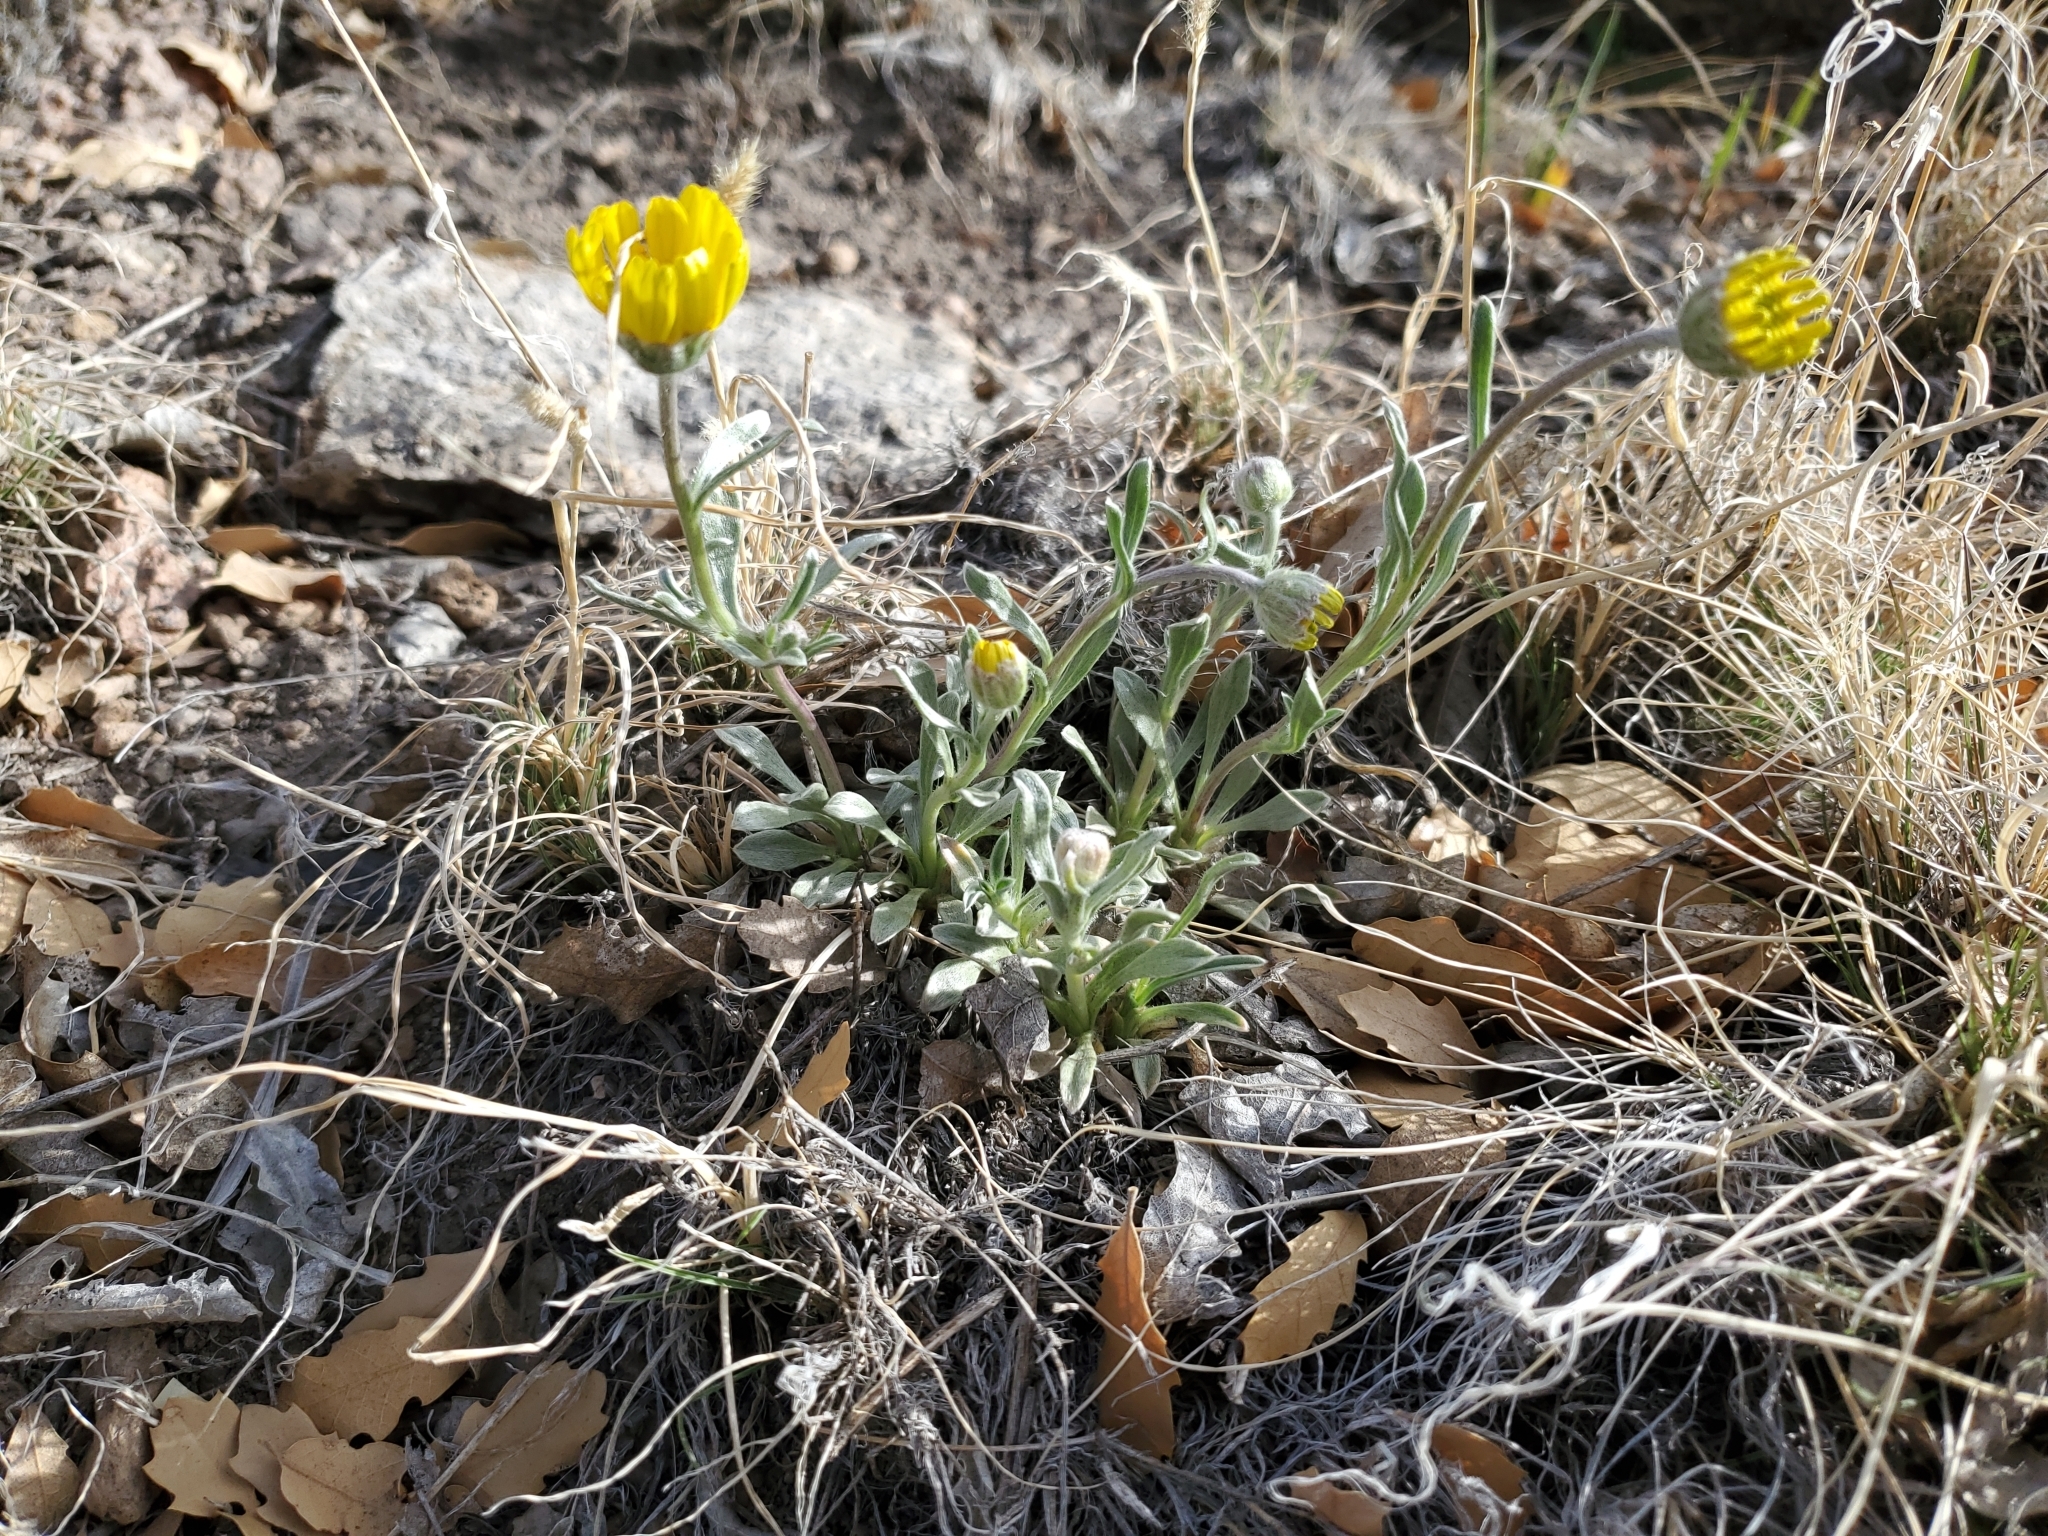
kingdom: Plantae
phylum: Tracheophyta
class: Magnoliopsida
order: Asterales
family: Asteraceae
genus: Tetraneuris
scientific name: Tetraneuris argentea
